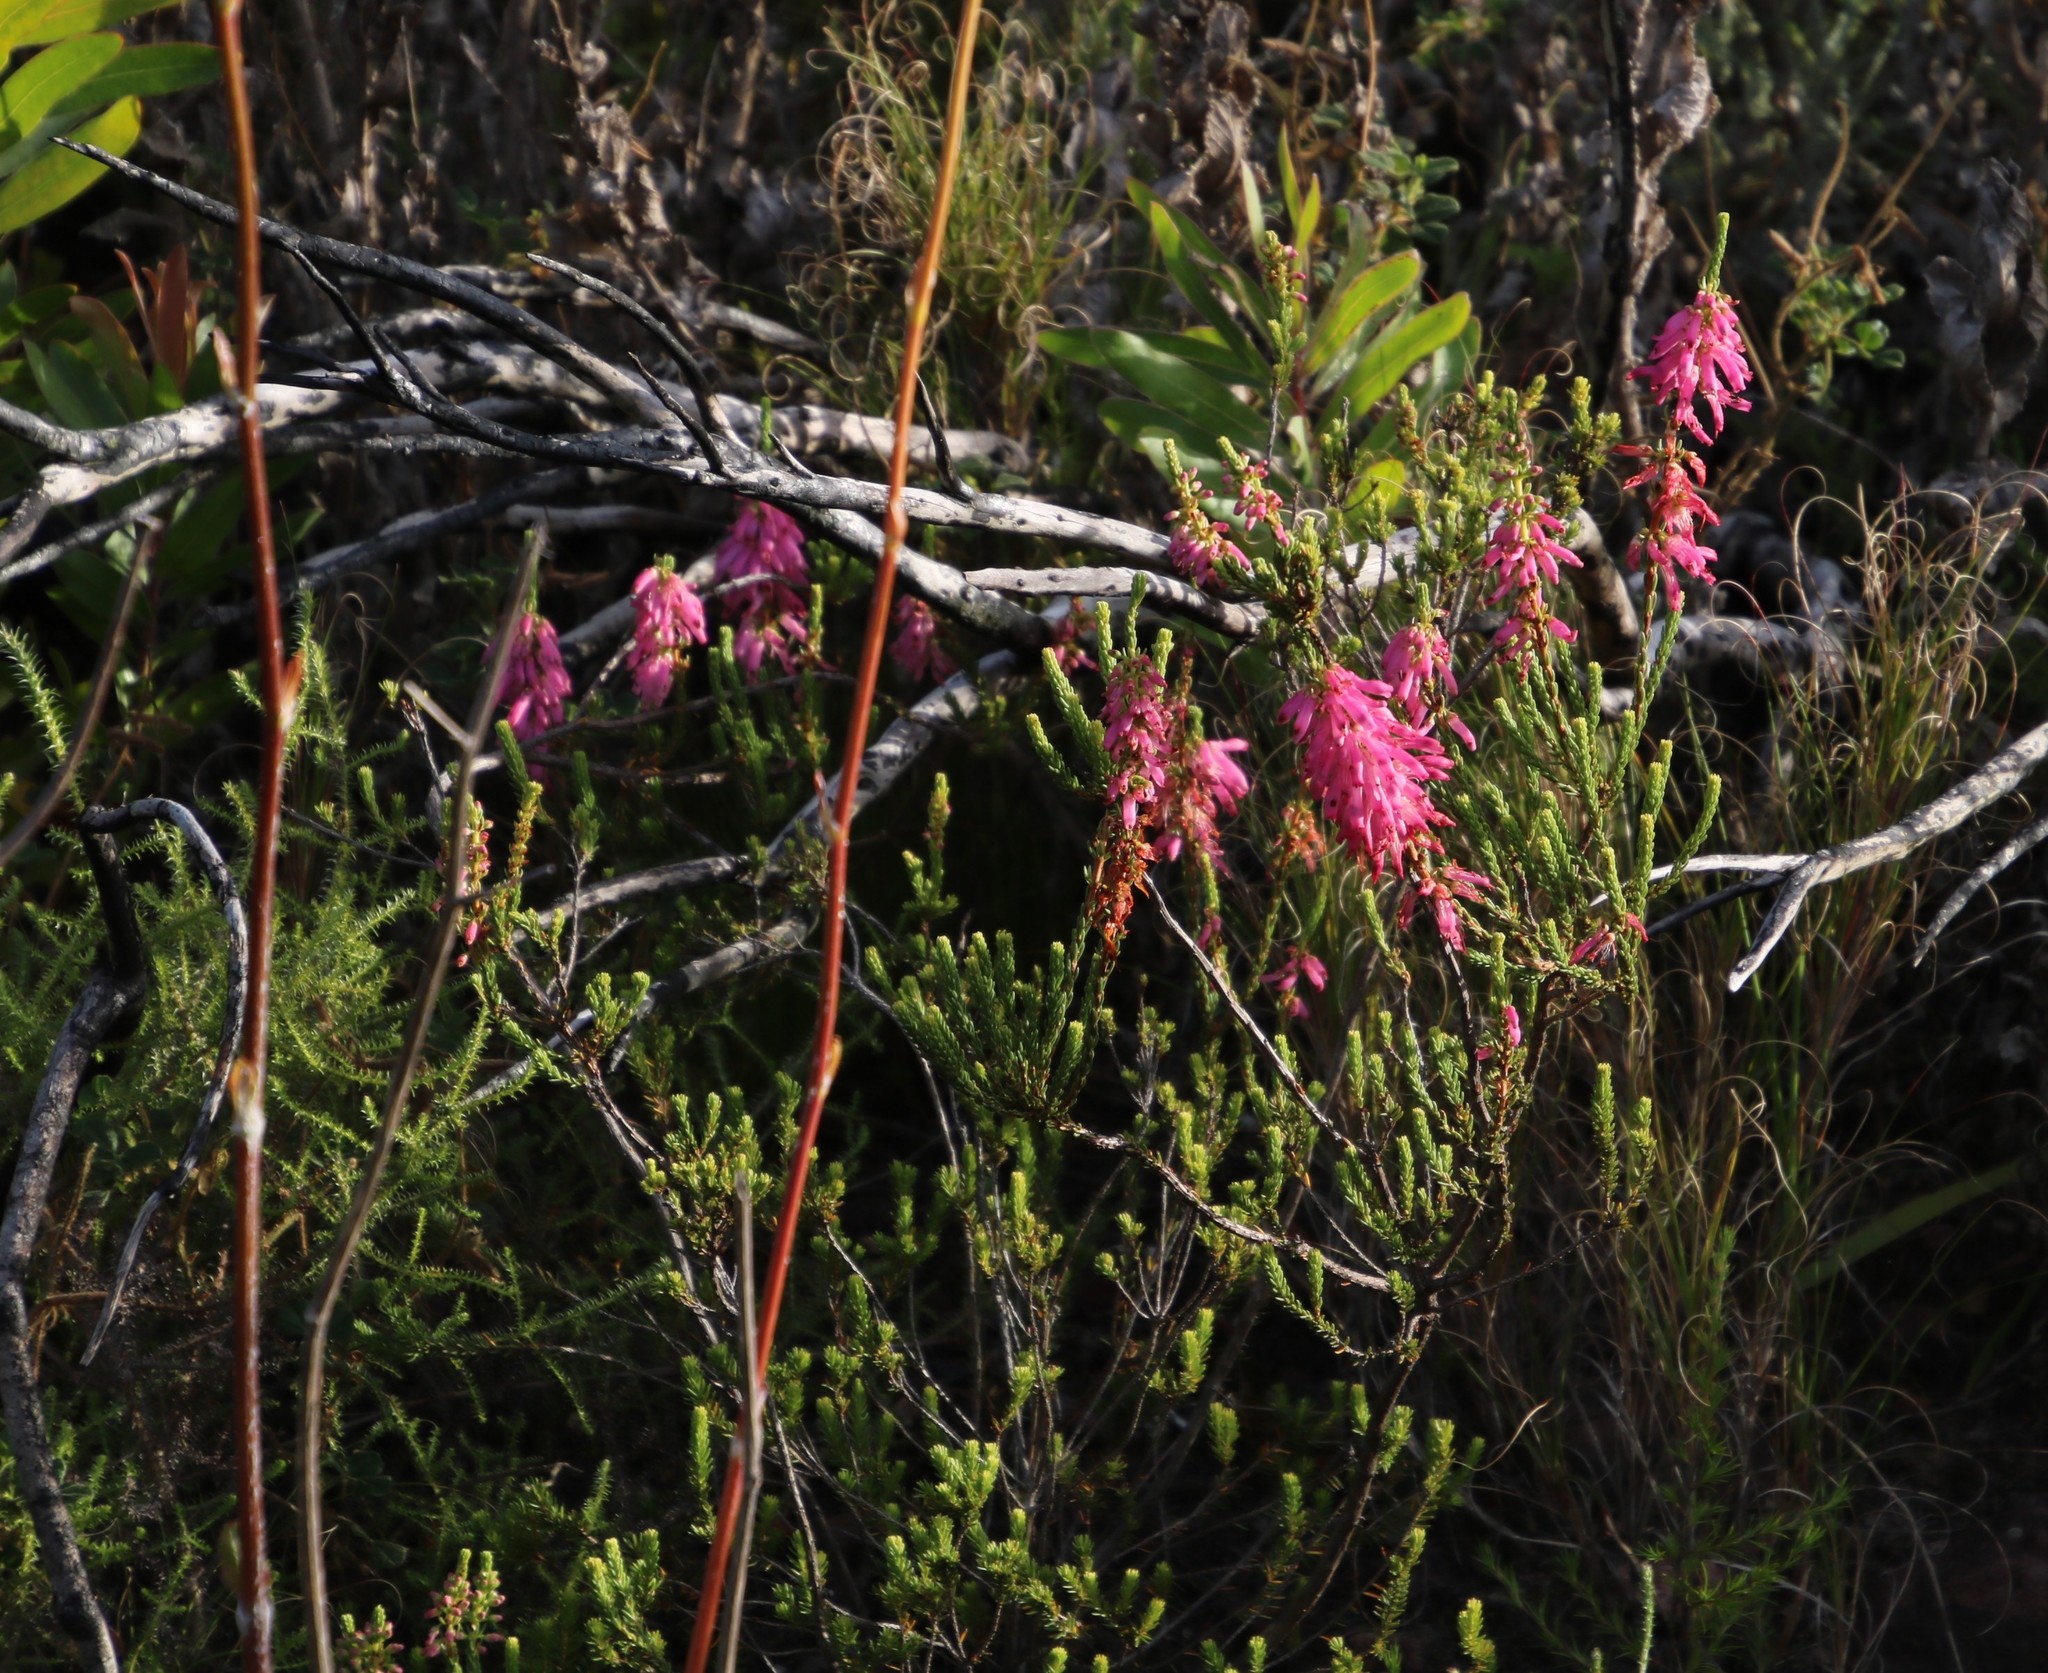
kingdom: Plantae
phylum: Tracheophyta
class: Magnoliopsida
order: Ericales
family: Ericaceae
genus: Erica
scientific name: Erica mammosa
